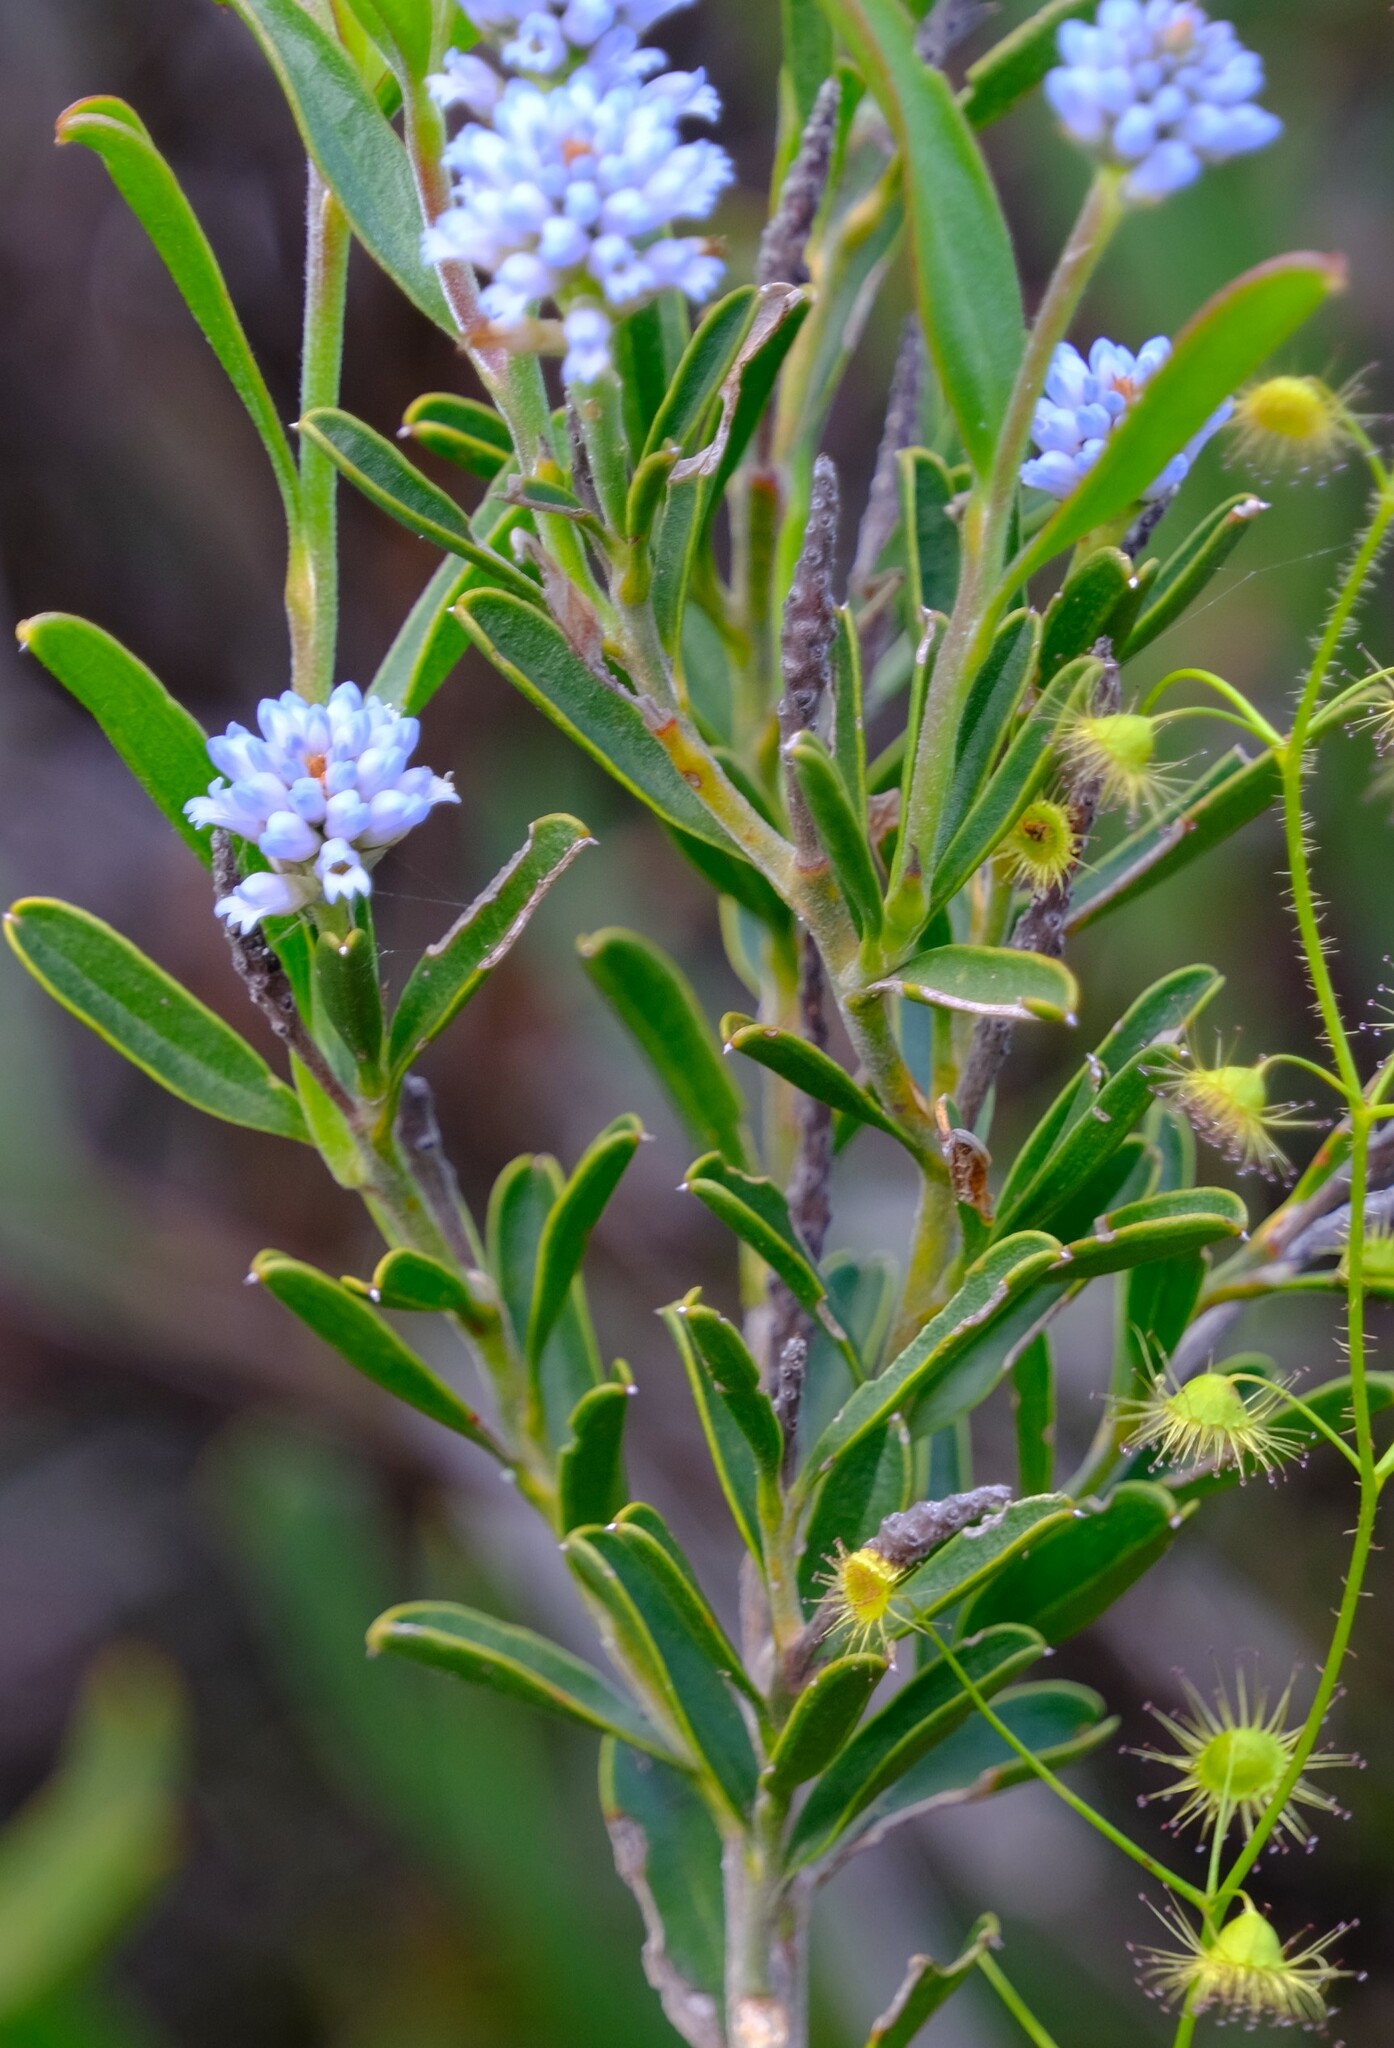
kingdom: Plantae
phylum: Tracheophyta
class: Magnoliopsida
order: Proteales
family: Proteaceae
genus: Conospermum
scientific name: Conospermum nervosum
